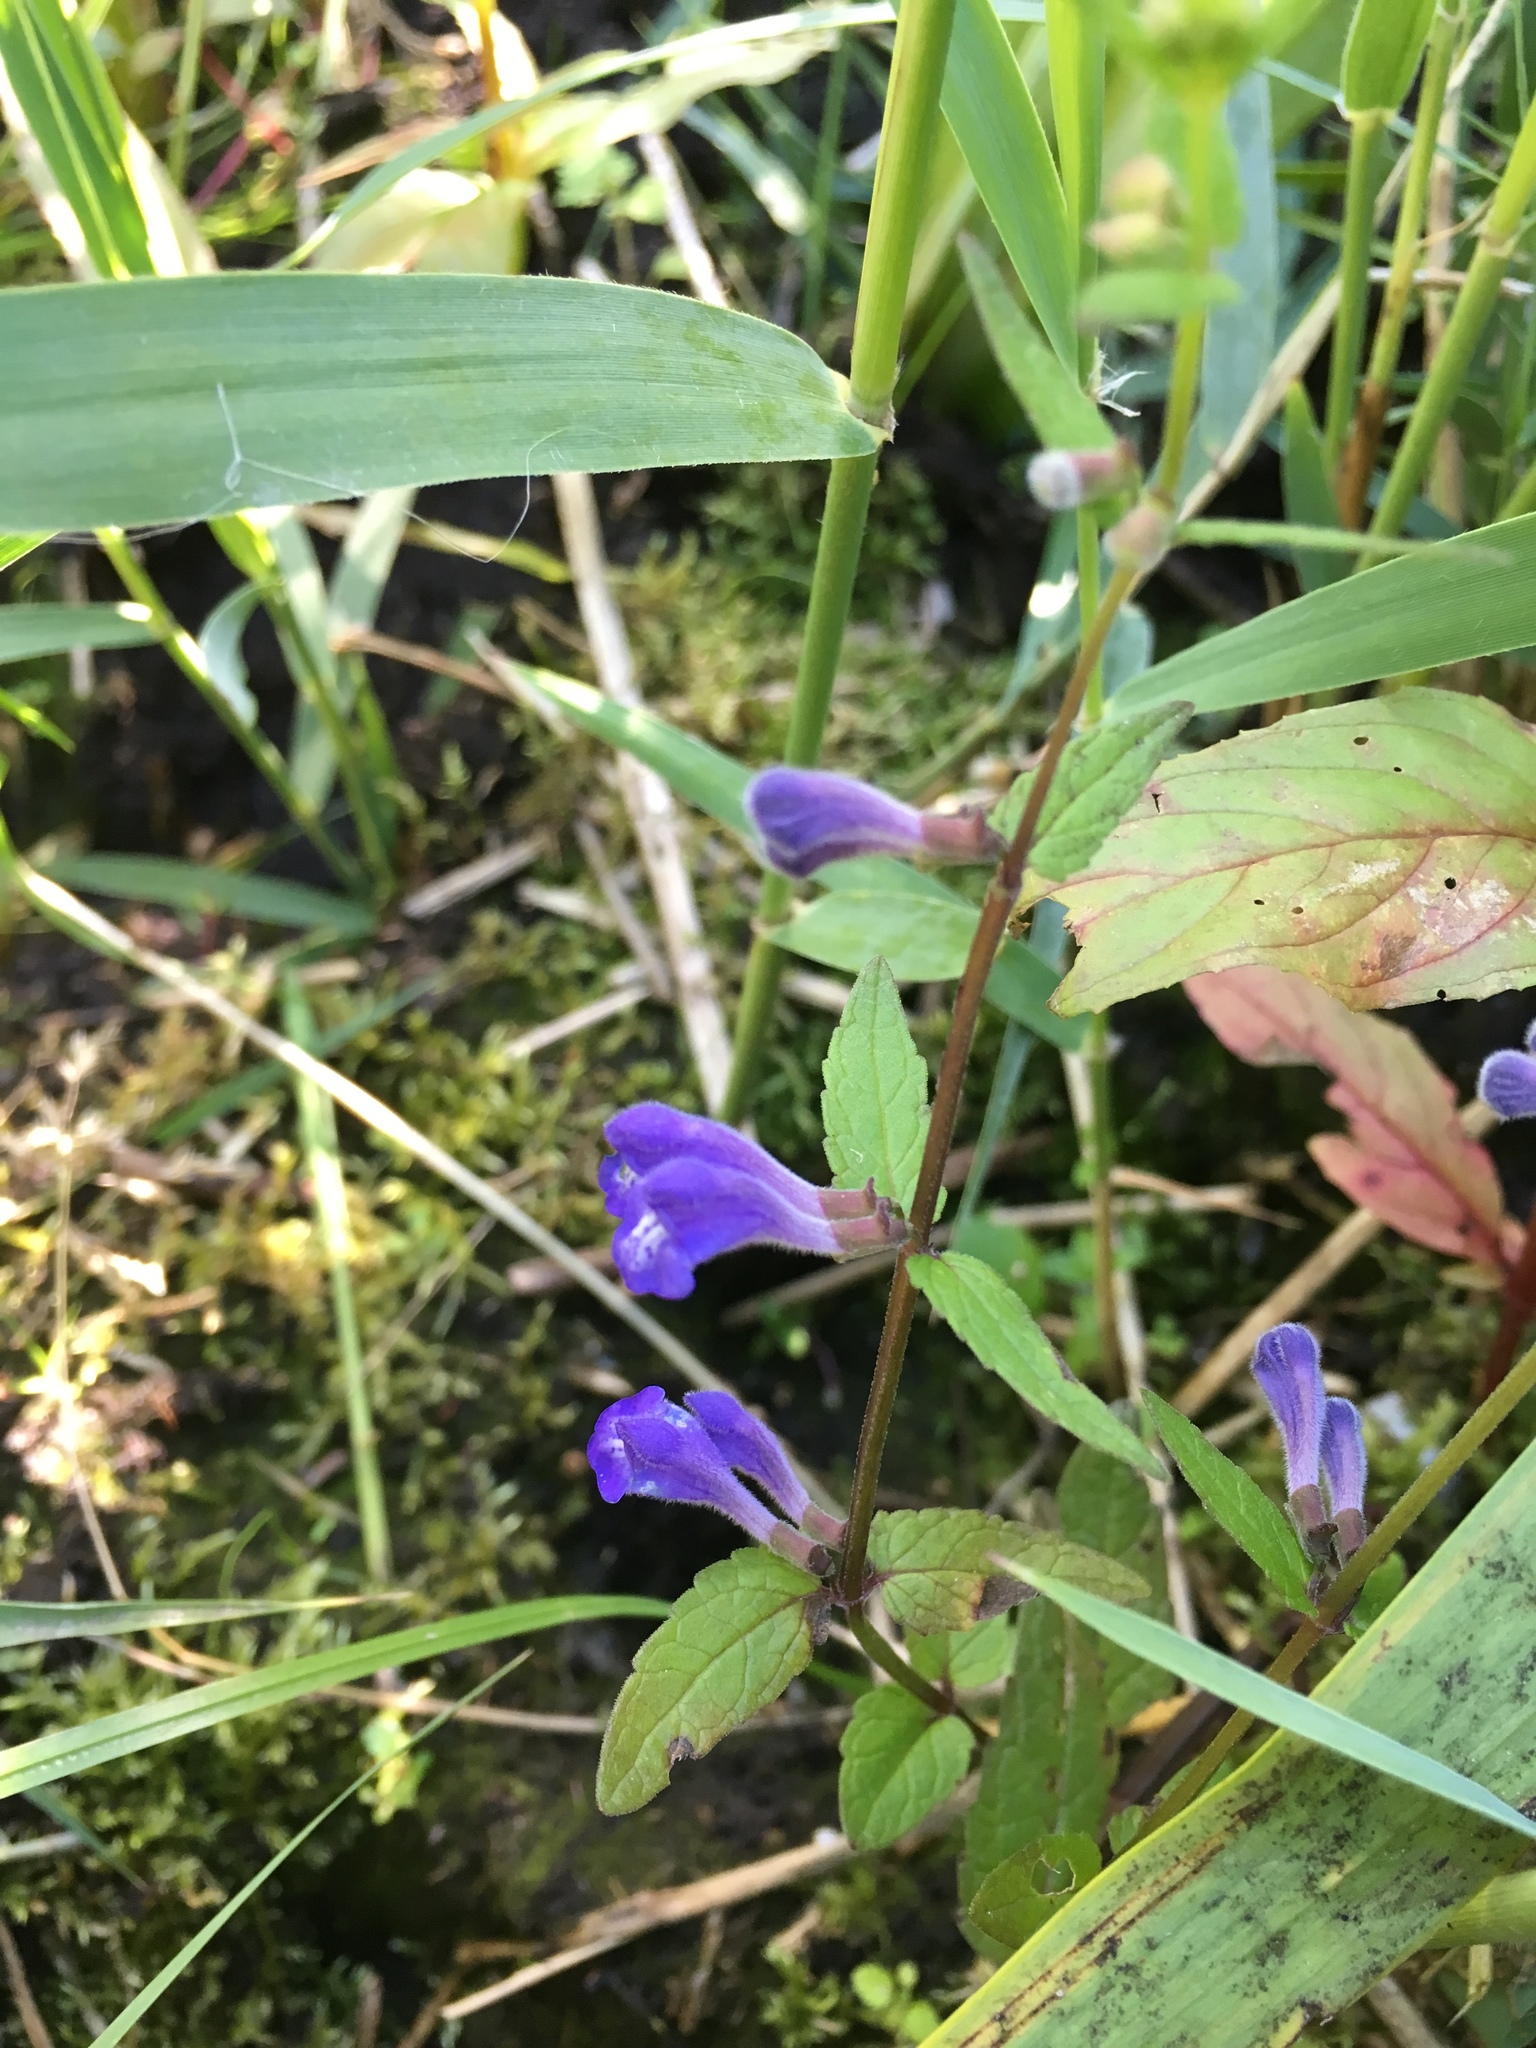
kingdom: Plantae
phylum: Tracheophyta
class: Magnoliopsida
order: Lamiales
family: Lamiaceae
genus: Scutellaria
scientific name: Scutellaria galericulata
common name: Skullcap
